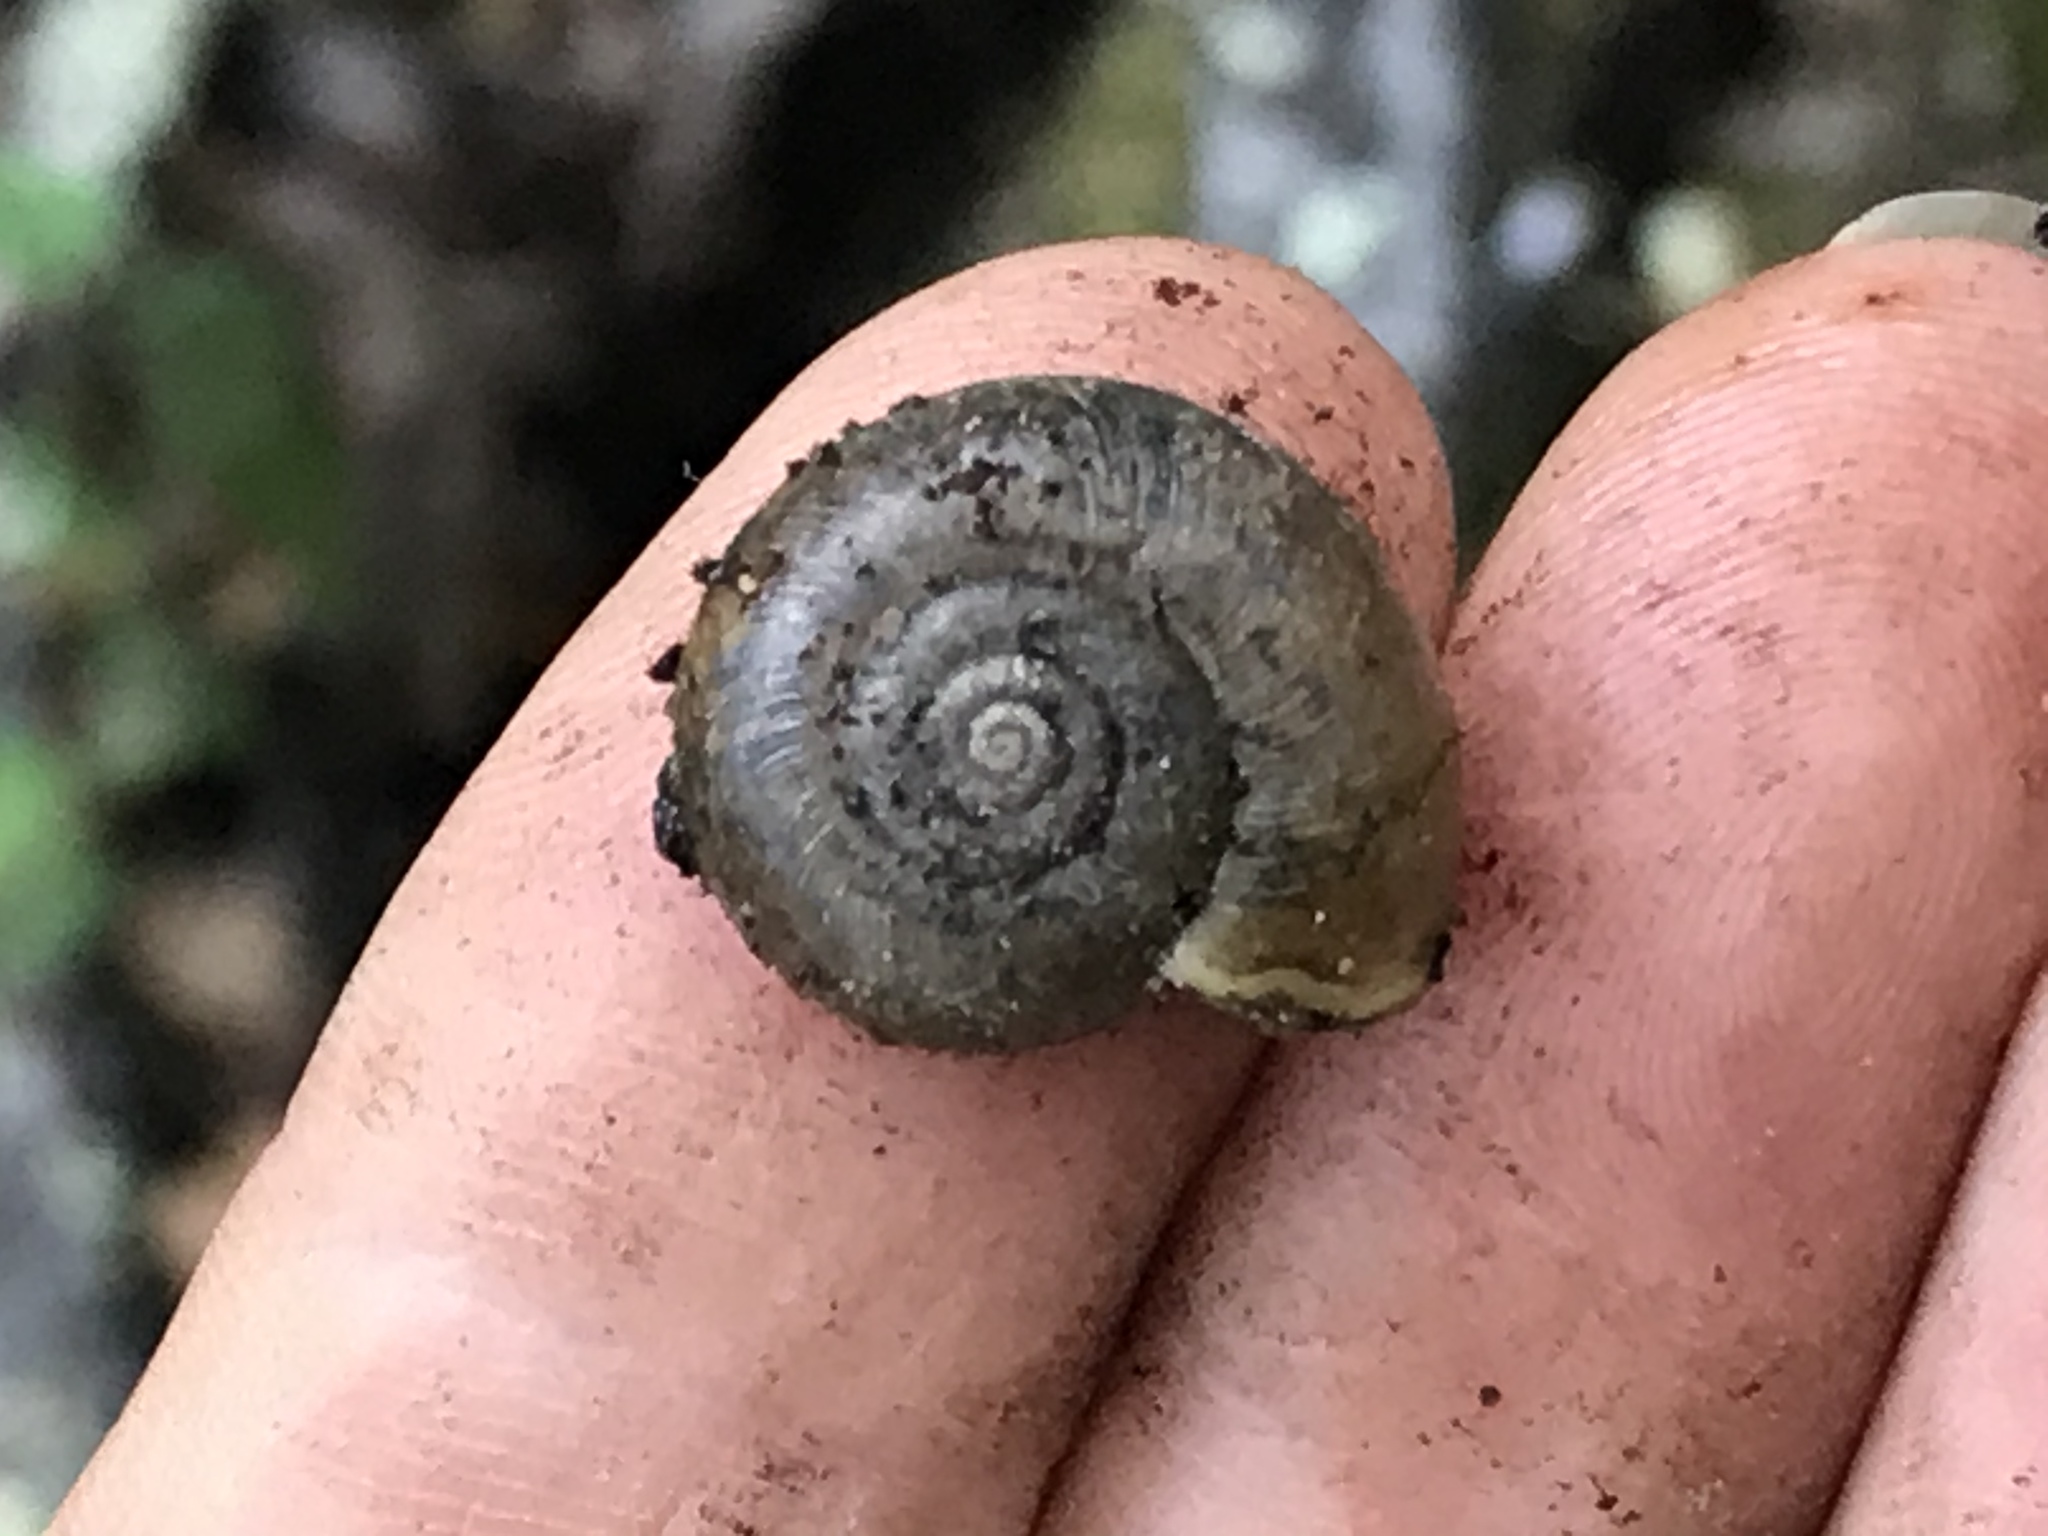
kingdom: Animalia
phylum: Mollusca
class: Gastropoda
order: Stylommatophora
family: Haplotrematidae
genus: Haplotrema
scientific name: Haplotrema minimum
